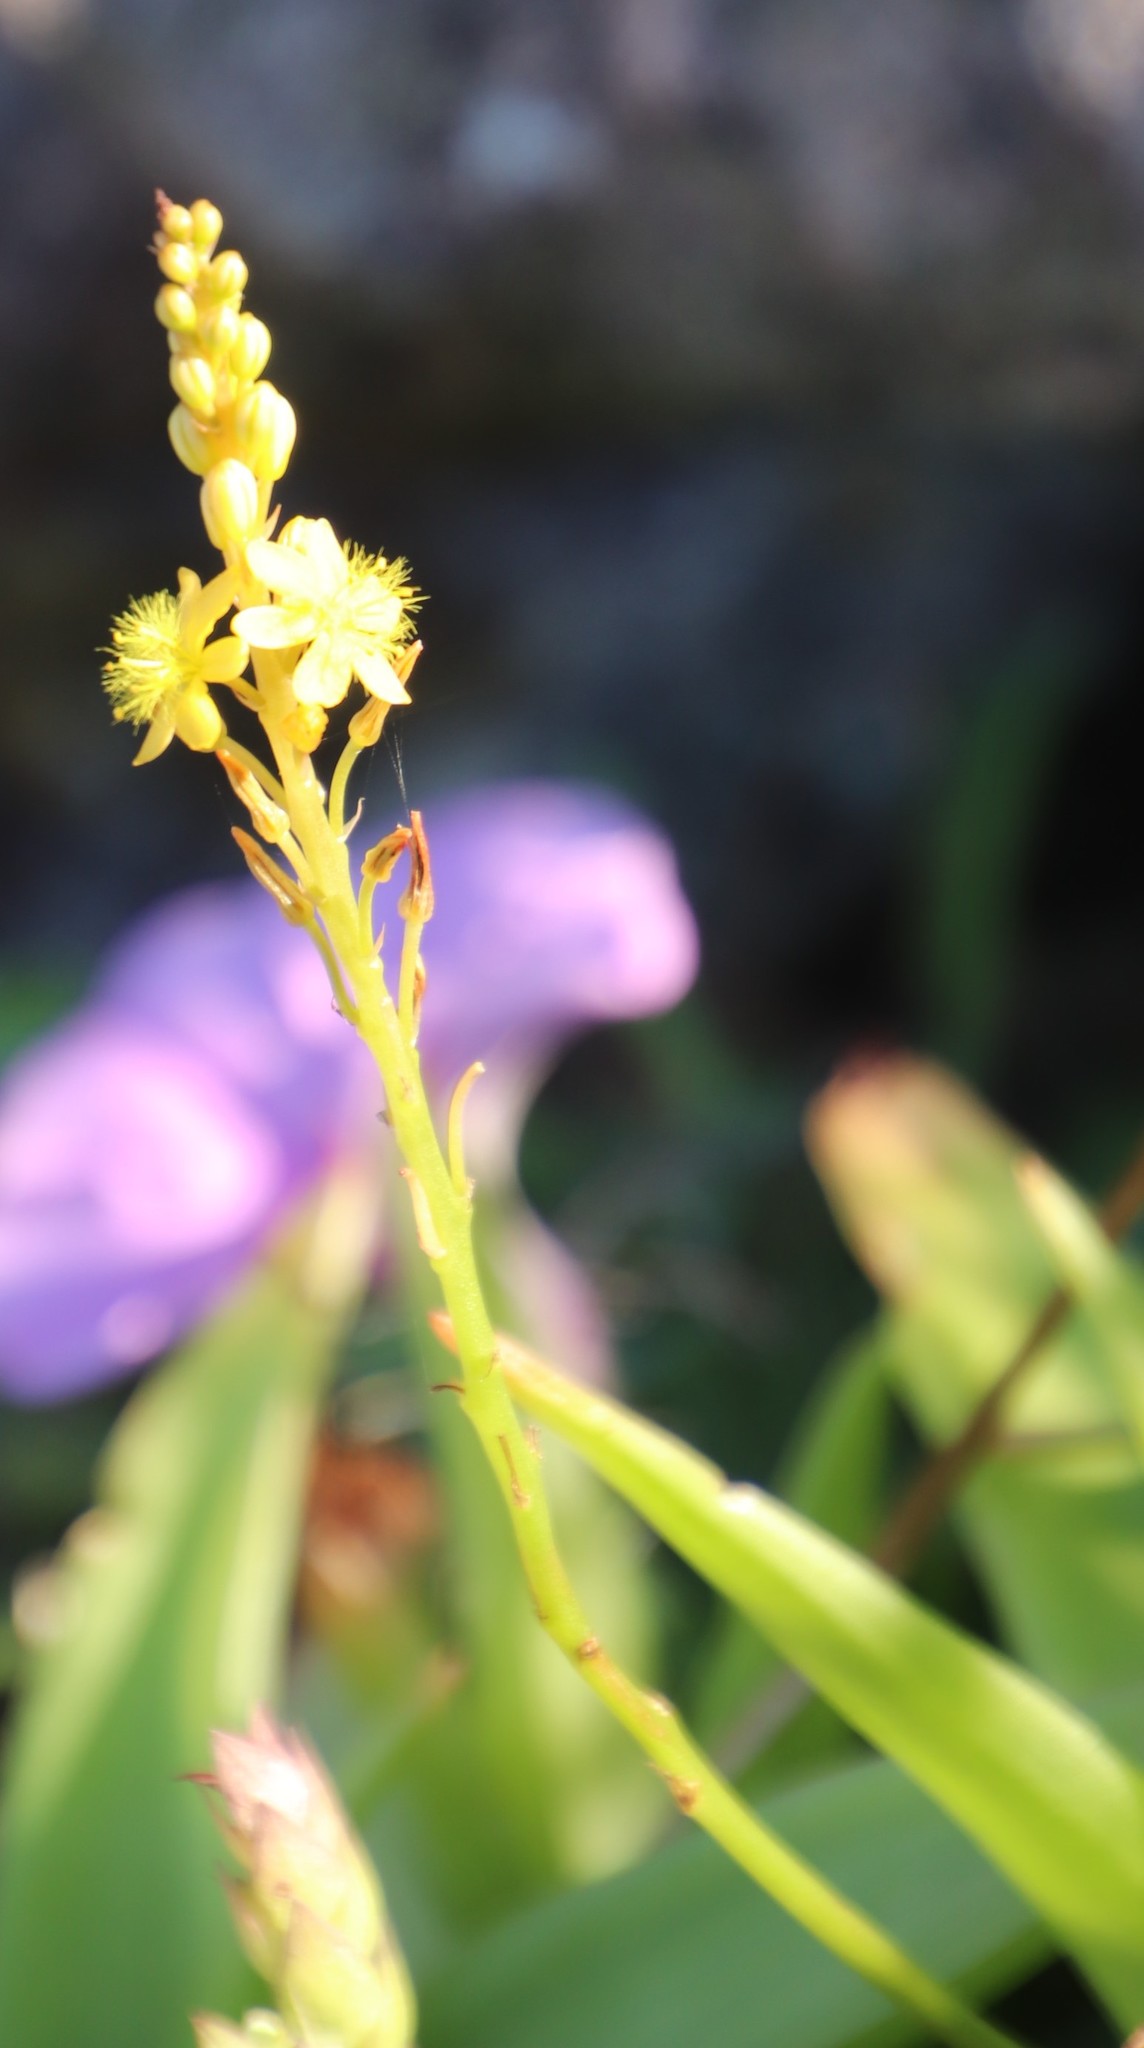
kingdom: Plantae
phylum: Tracheophyta
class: Liliopsida
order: Asparagales
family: Asphodelaceae
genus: Bulbine
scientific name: Bulbine latifolia
